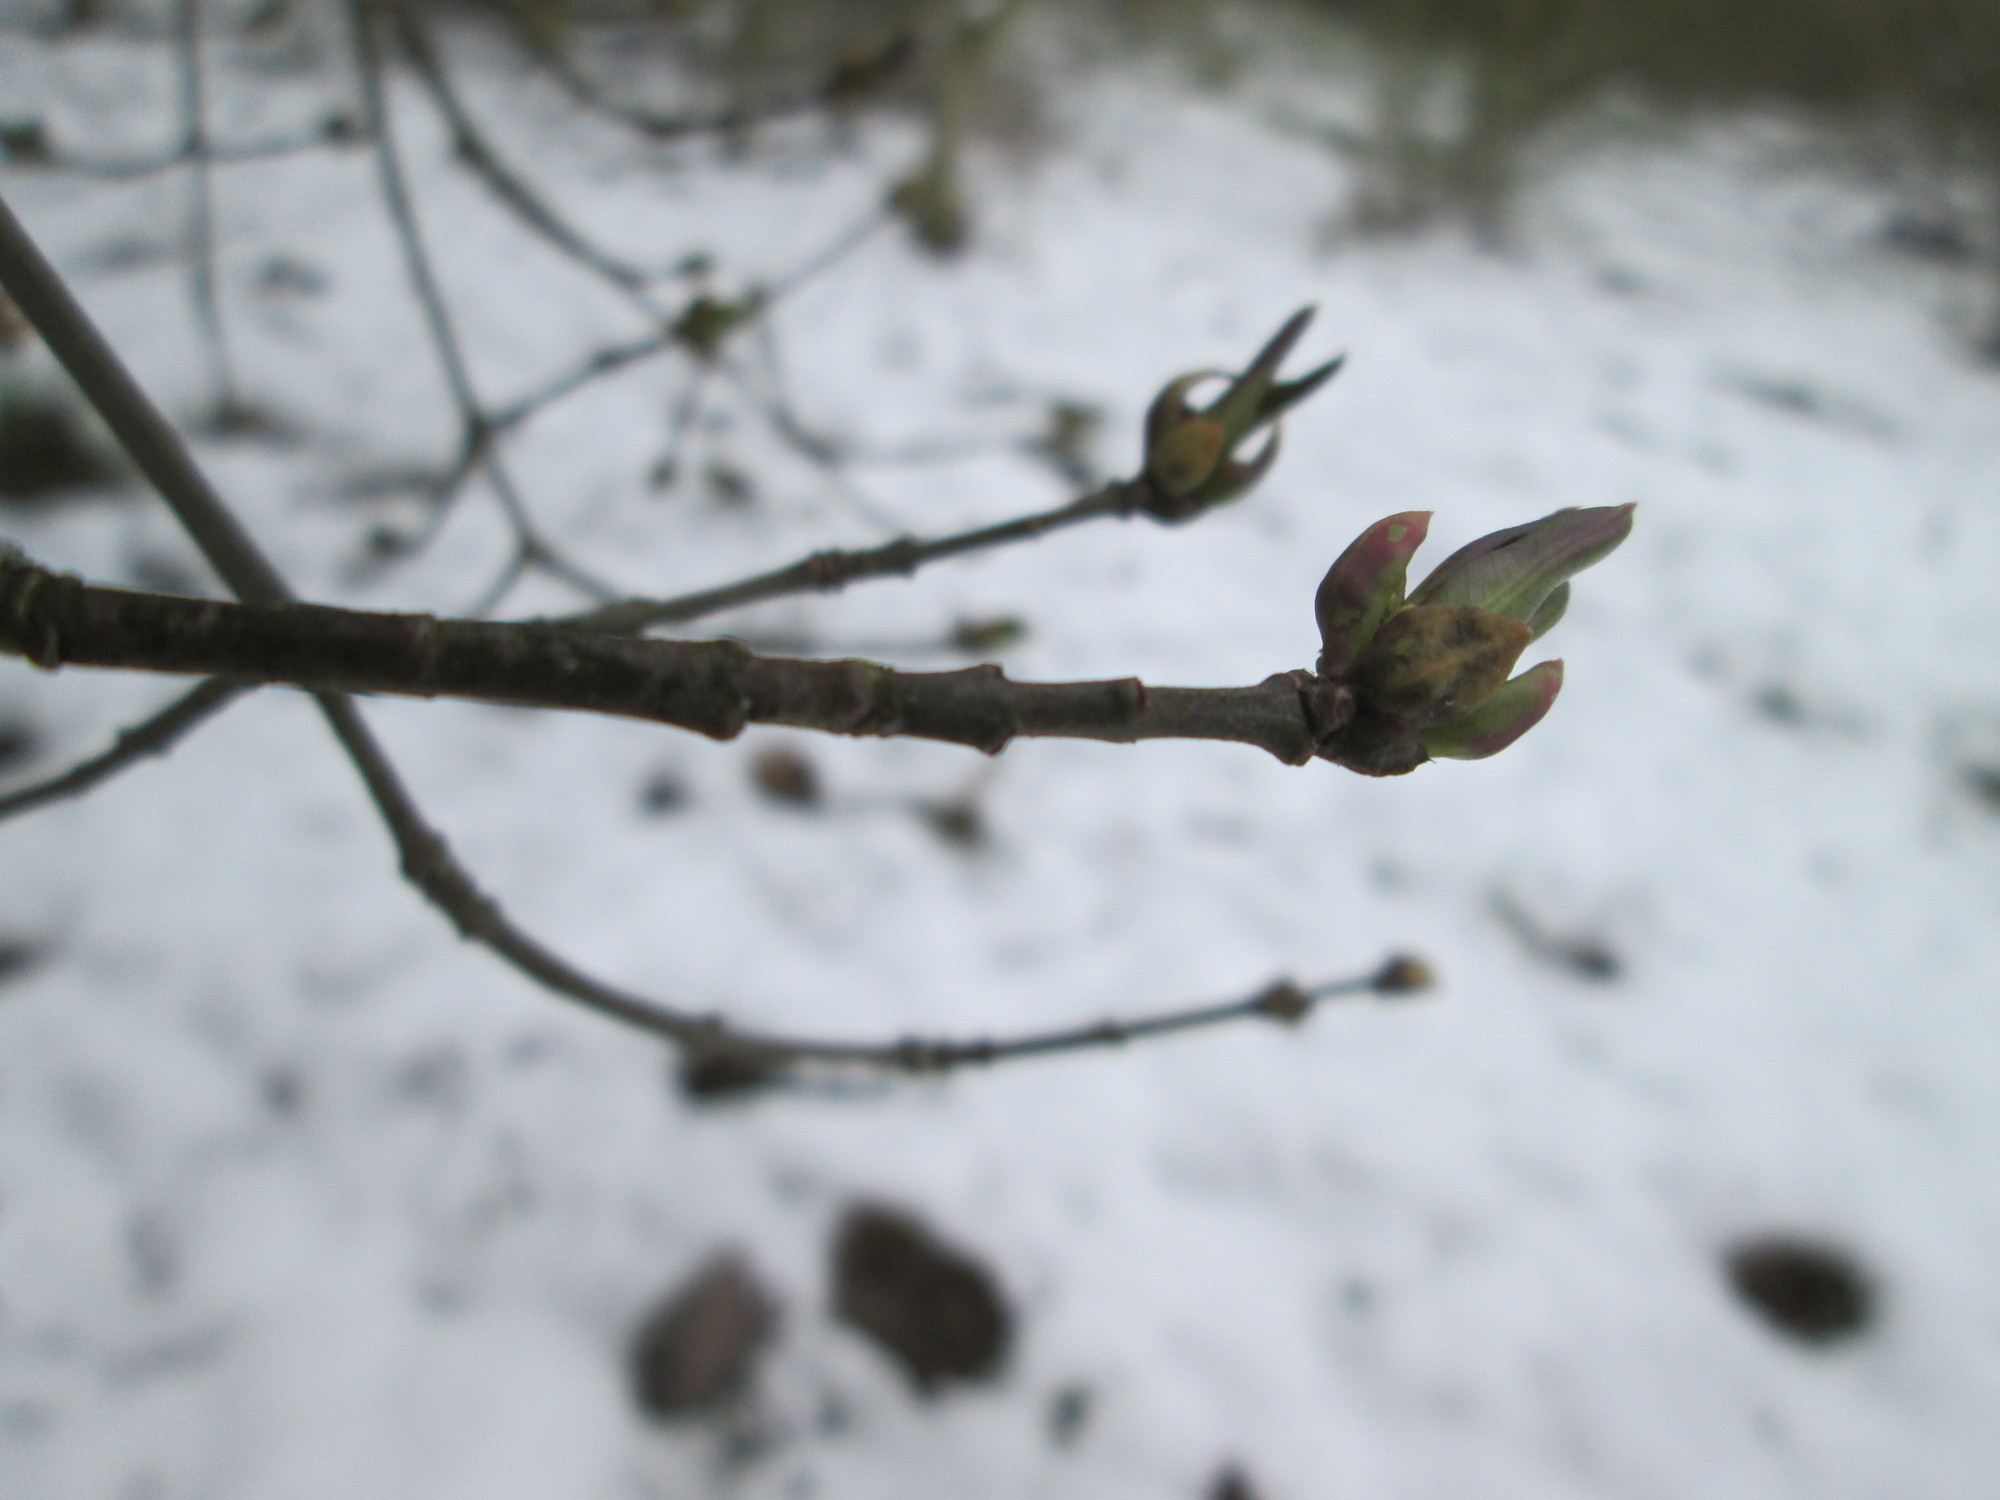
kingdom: Plantae
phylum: Tracheophyta
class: Magnoliopsida
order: Celastrales
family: Celastraceae
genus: Euonymus
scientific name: Euonymus europaeus
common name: Spindle
